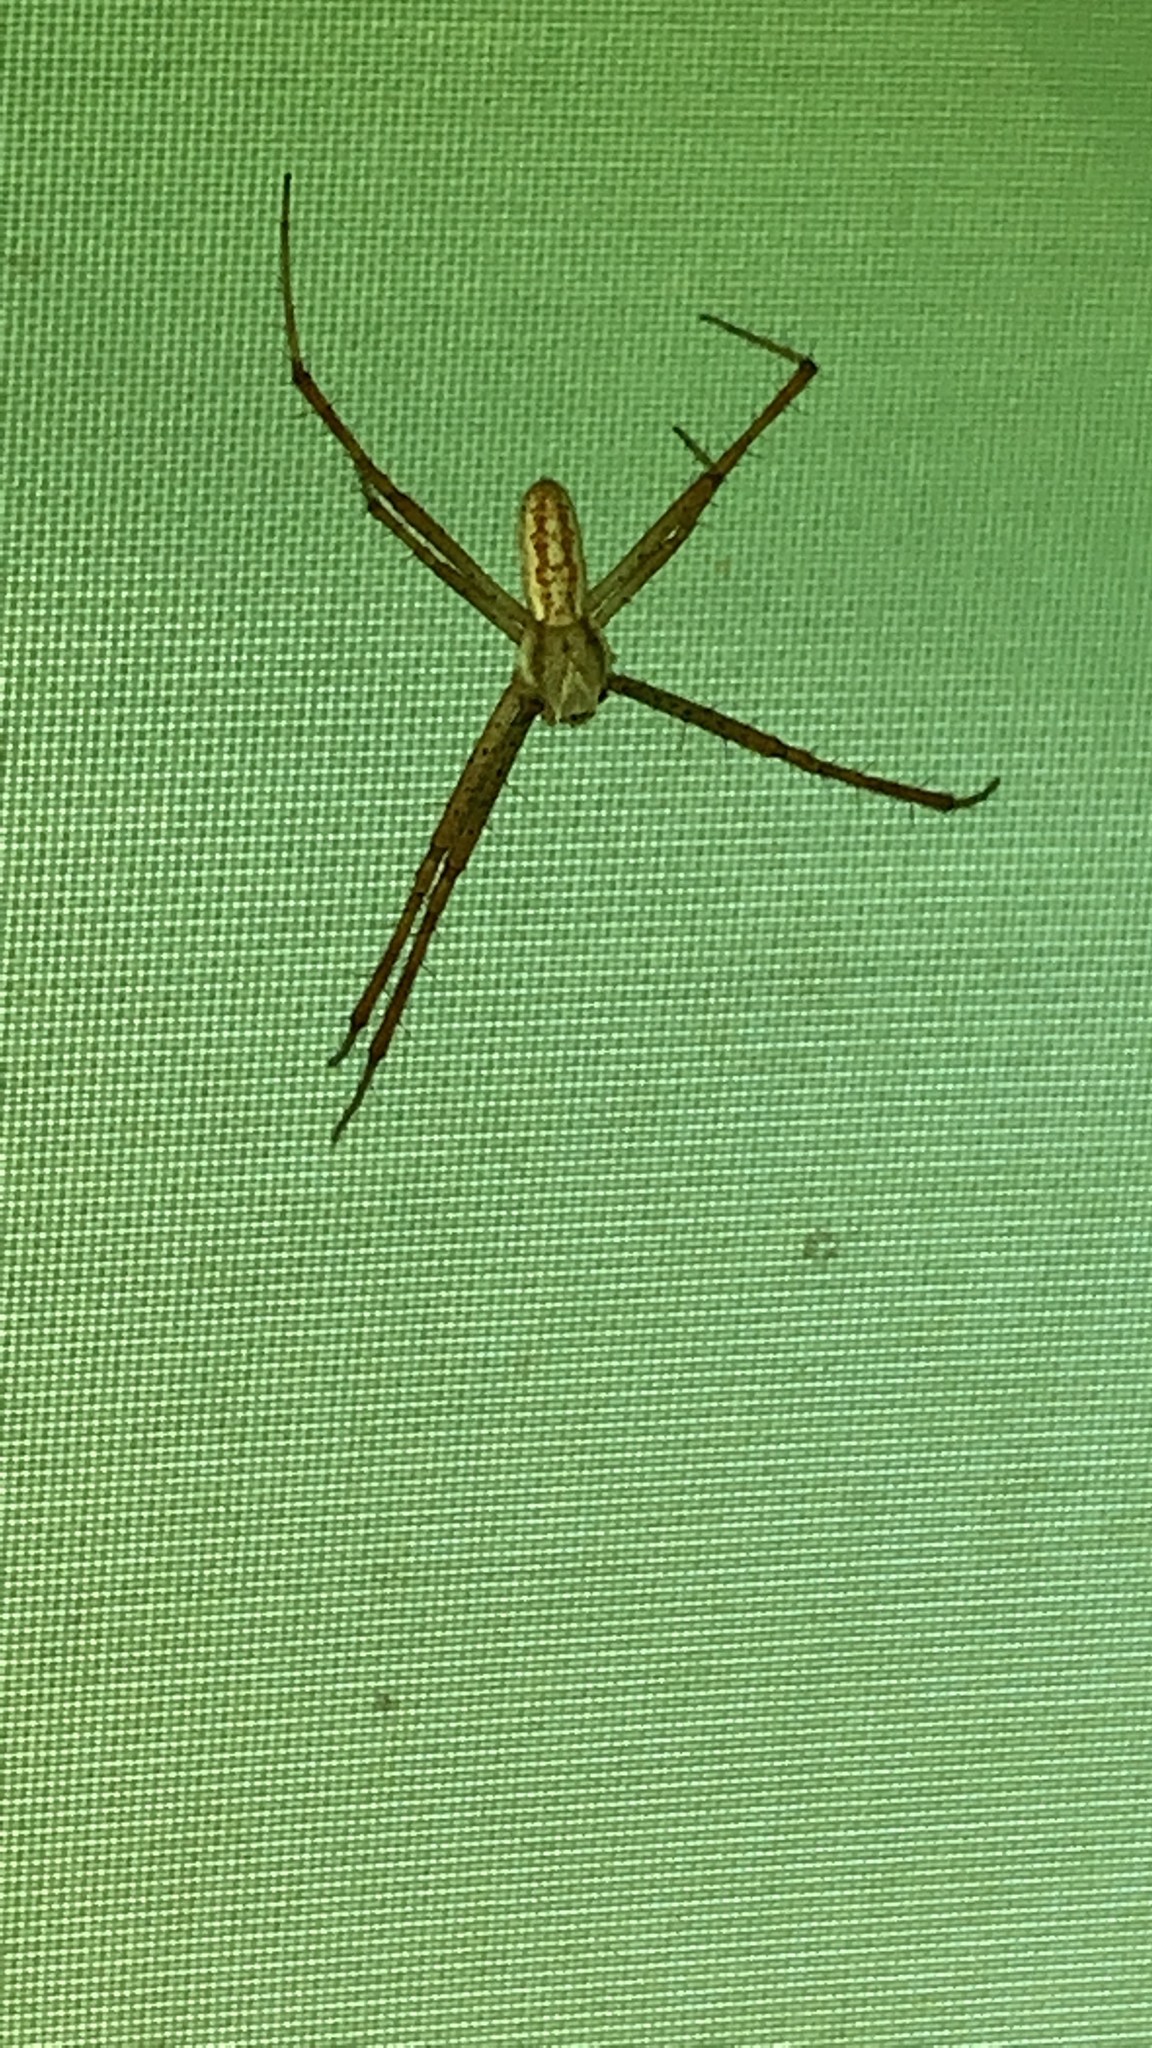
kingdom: Animalia
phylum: Arthropoda
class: Arachnida
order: Araneae
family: Araneidae
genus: Argiope
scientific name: Argiope bruennichi
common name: Wasp spider
